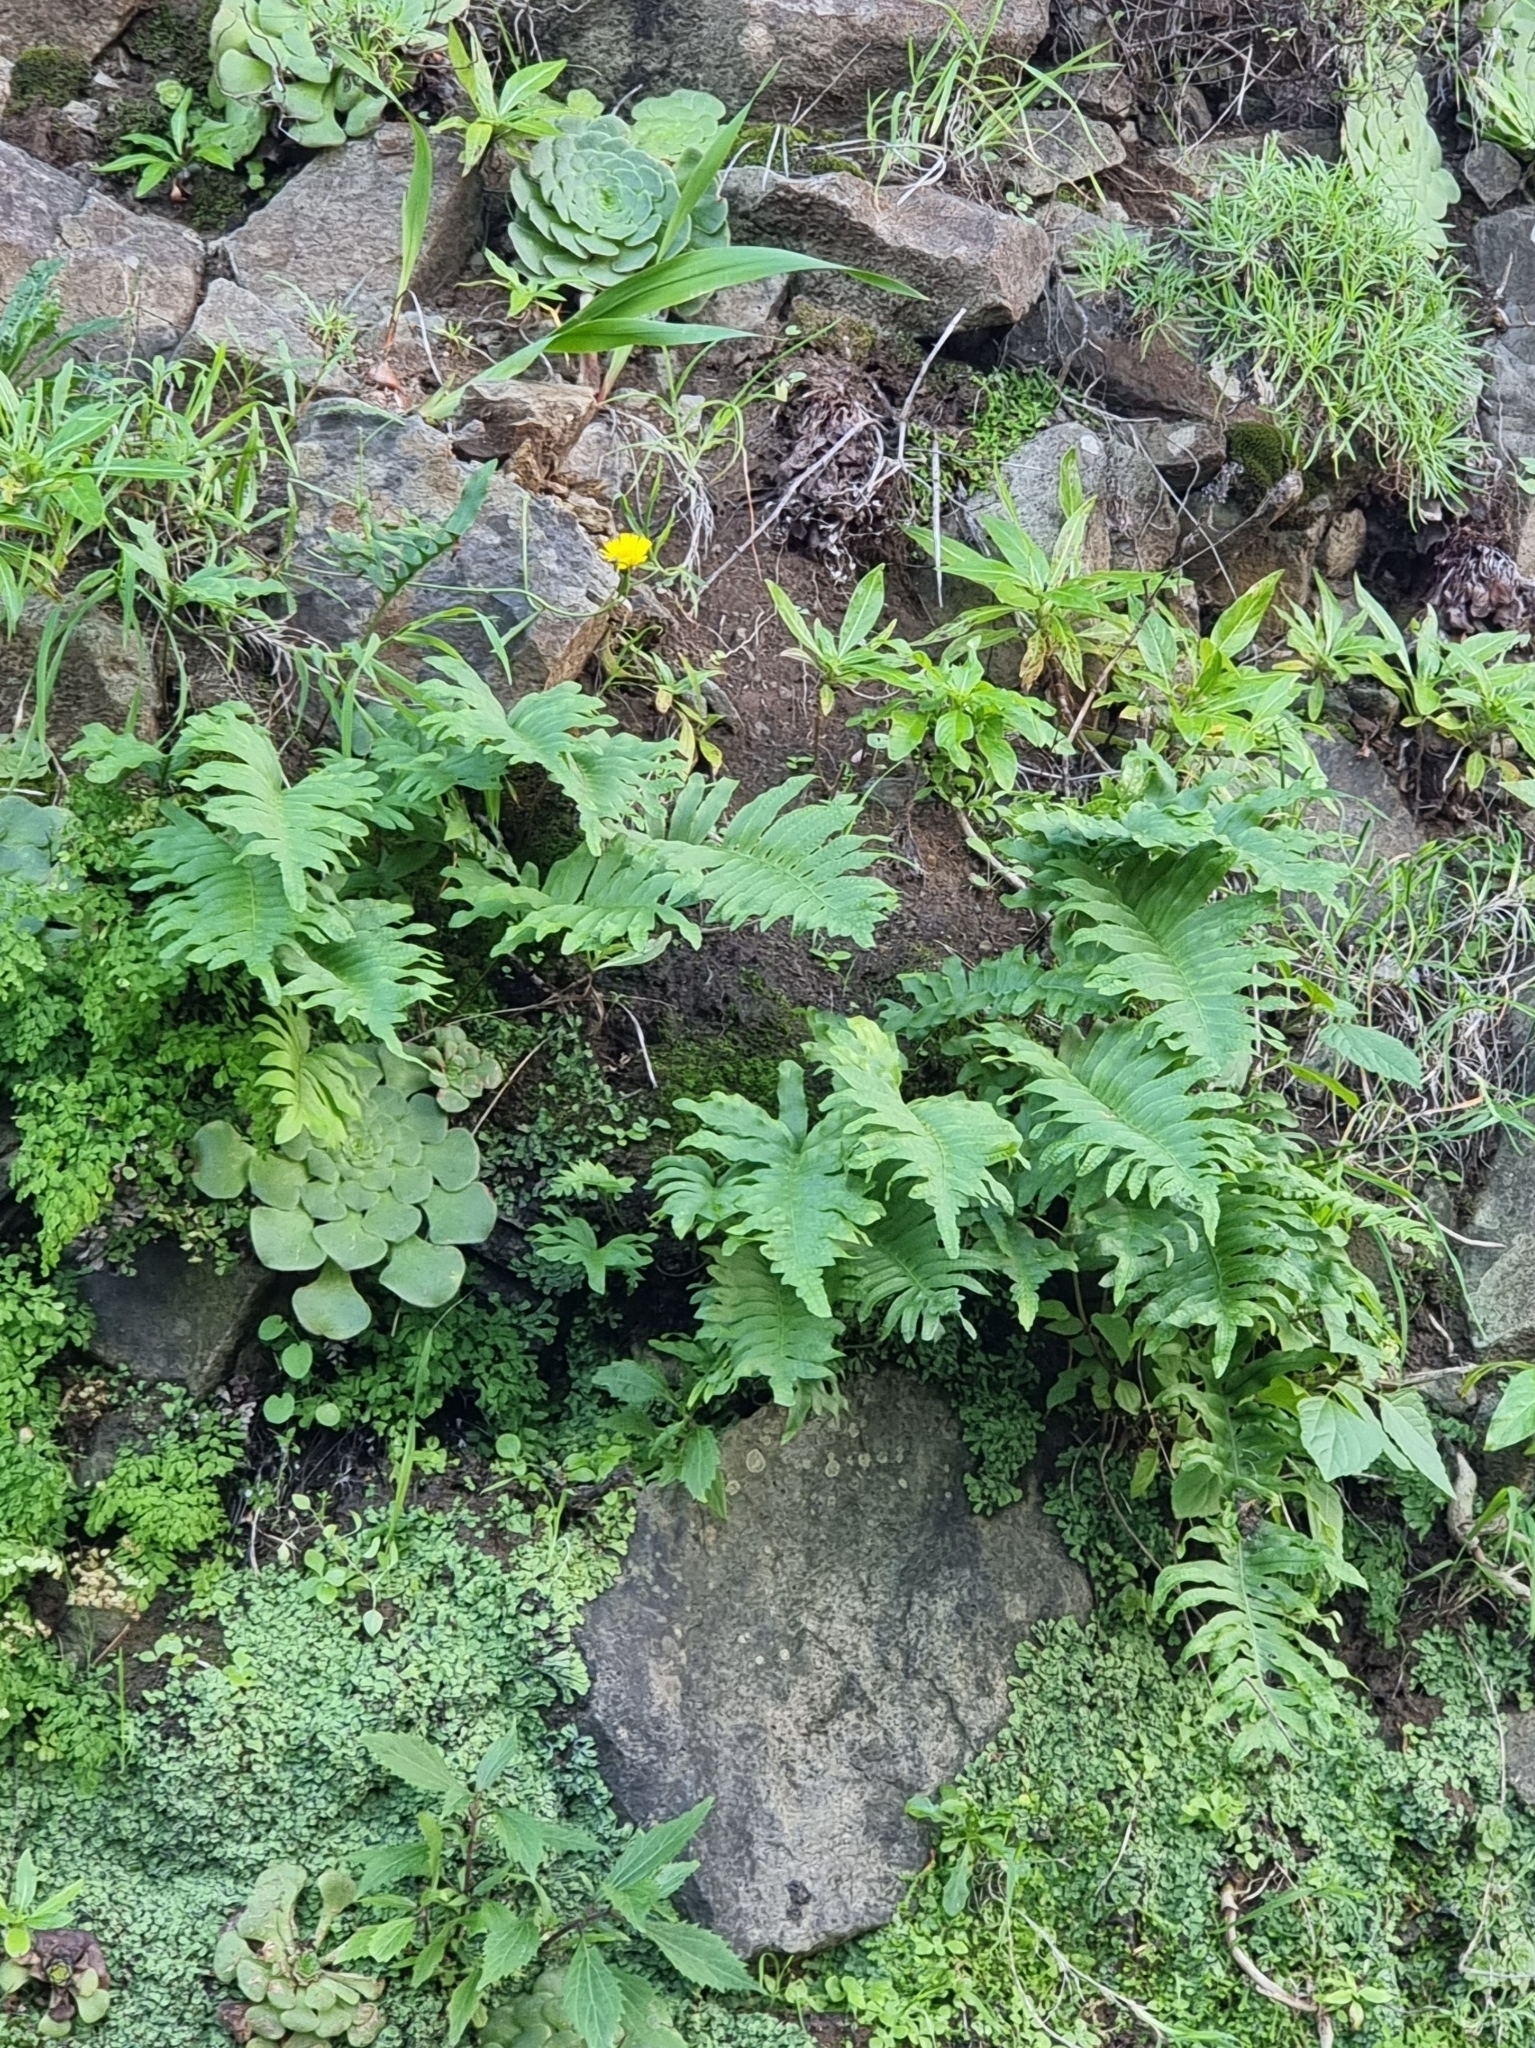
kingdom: Plantae
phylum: Tracheophyta
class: Polypodiopsida
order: Polypodiales
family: Polypodiaceae
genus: Polypodium
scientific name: Polypodium macaronesicum
